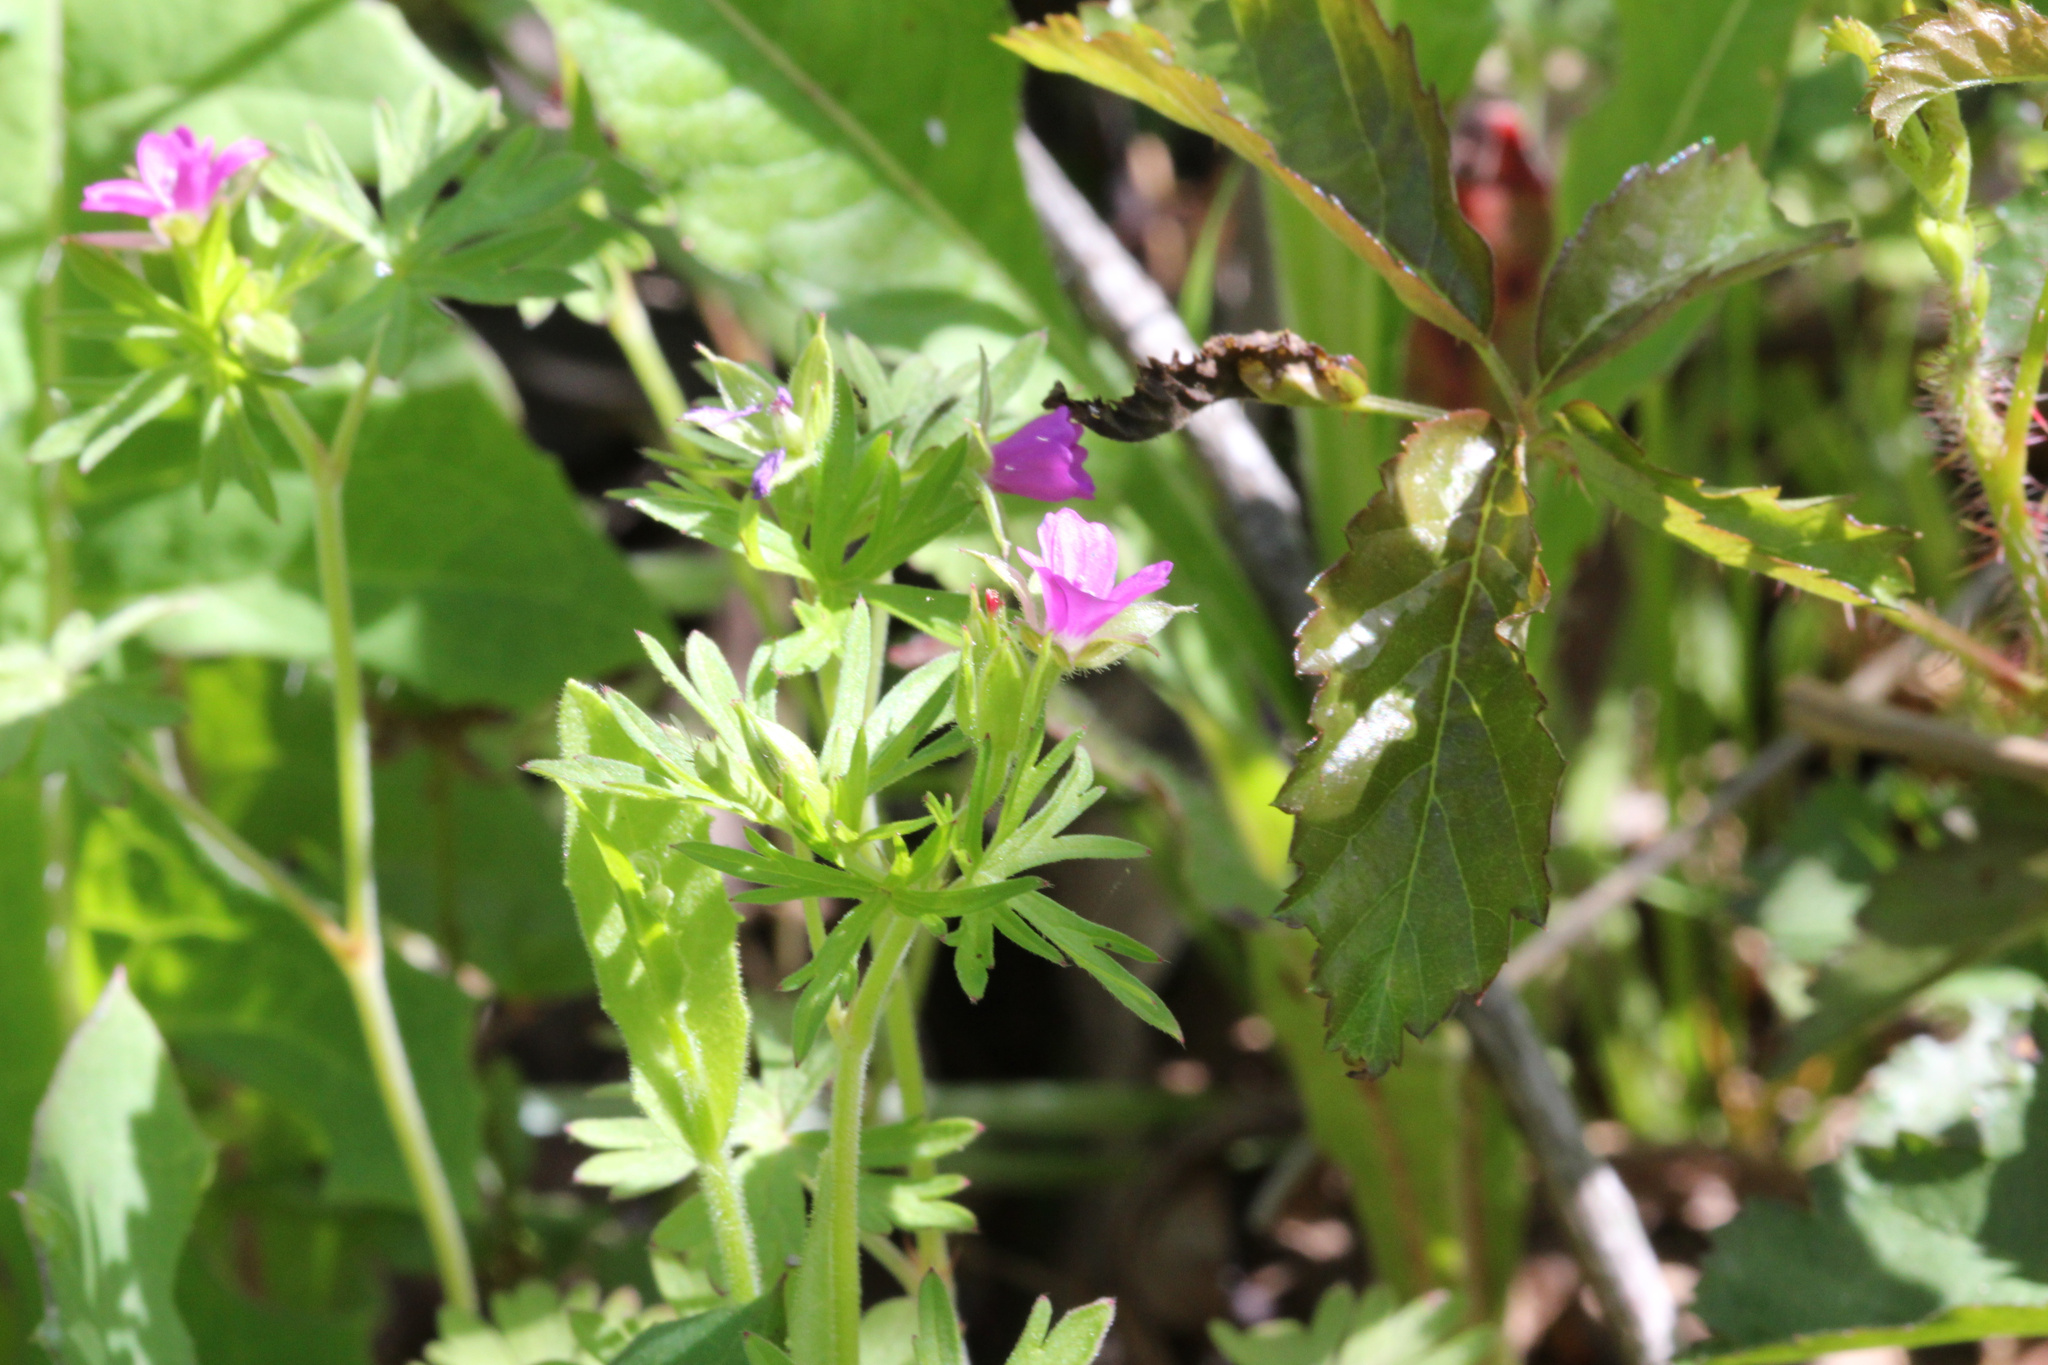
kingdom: Plantae
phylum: Tracheophyta
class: Magnoliopsida
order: Geraniales
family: Geraniaceae
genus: Geranium
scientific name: Geranium dissectum
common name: Cut-leaved crane's-bill
